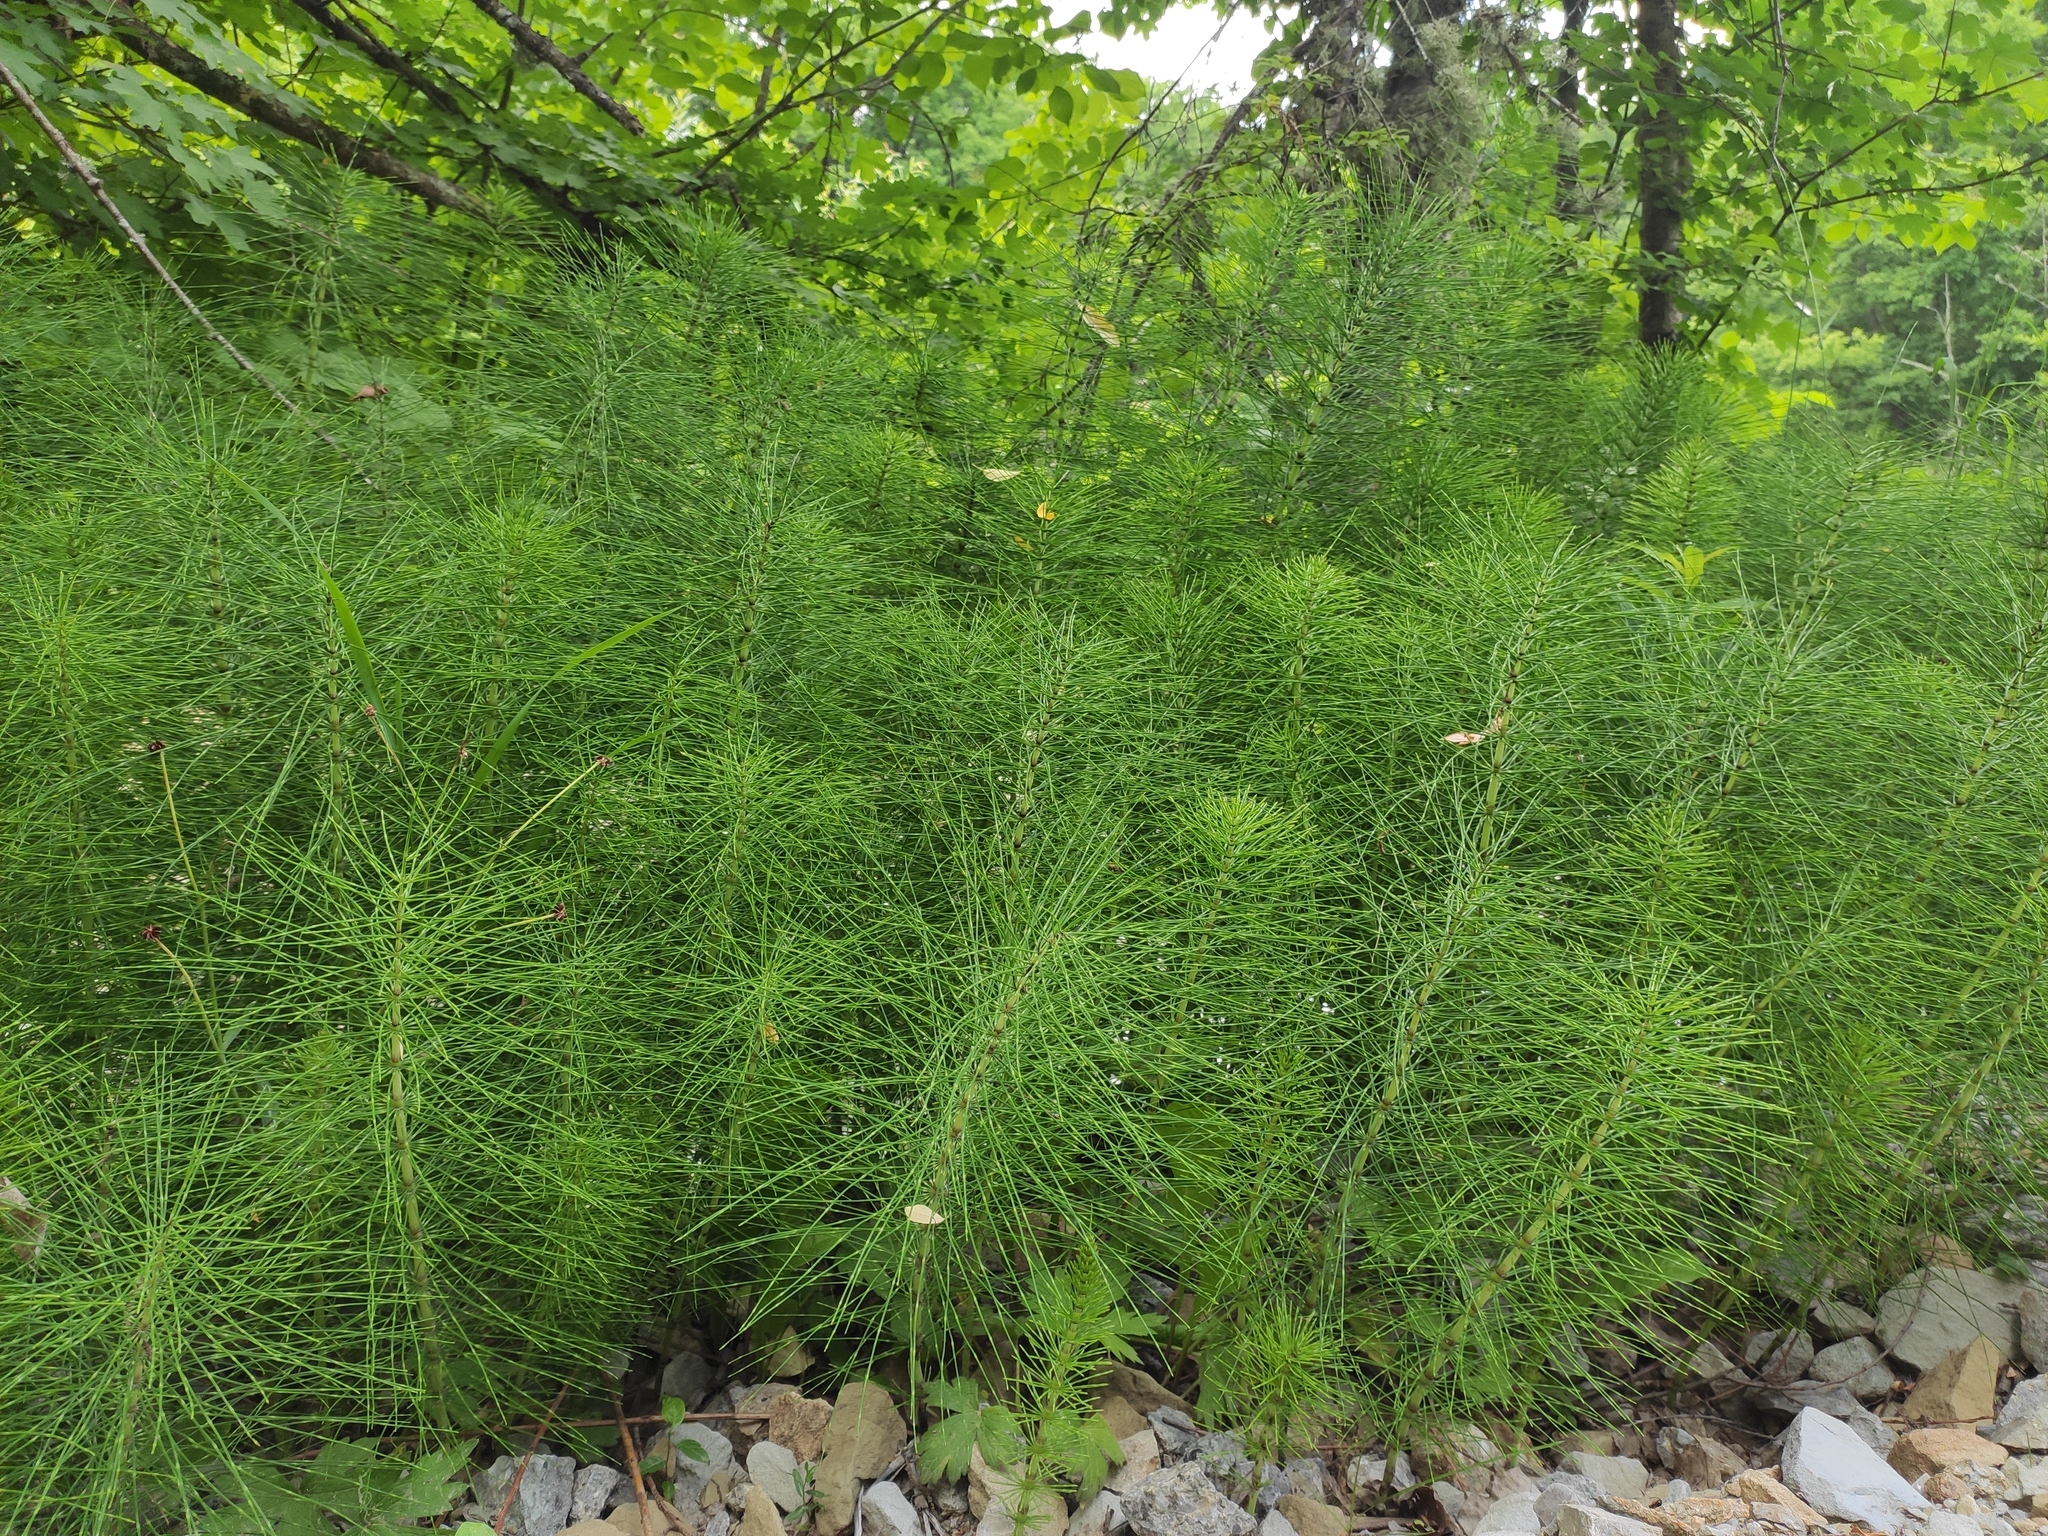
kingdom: Plantae
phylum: Tracheophyta
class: Polypodiopsida
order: Equisetales
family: Equisetaceae
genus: Equisetum
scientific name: Equisetum telmateia
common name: Great horsetail
